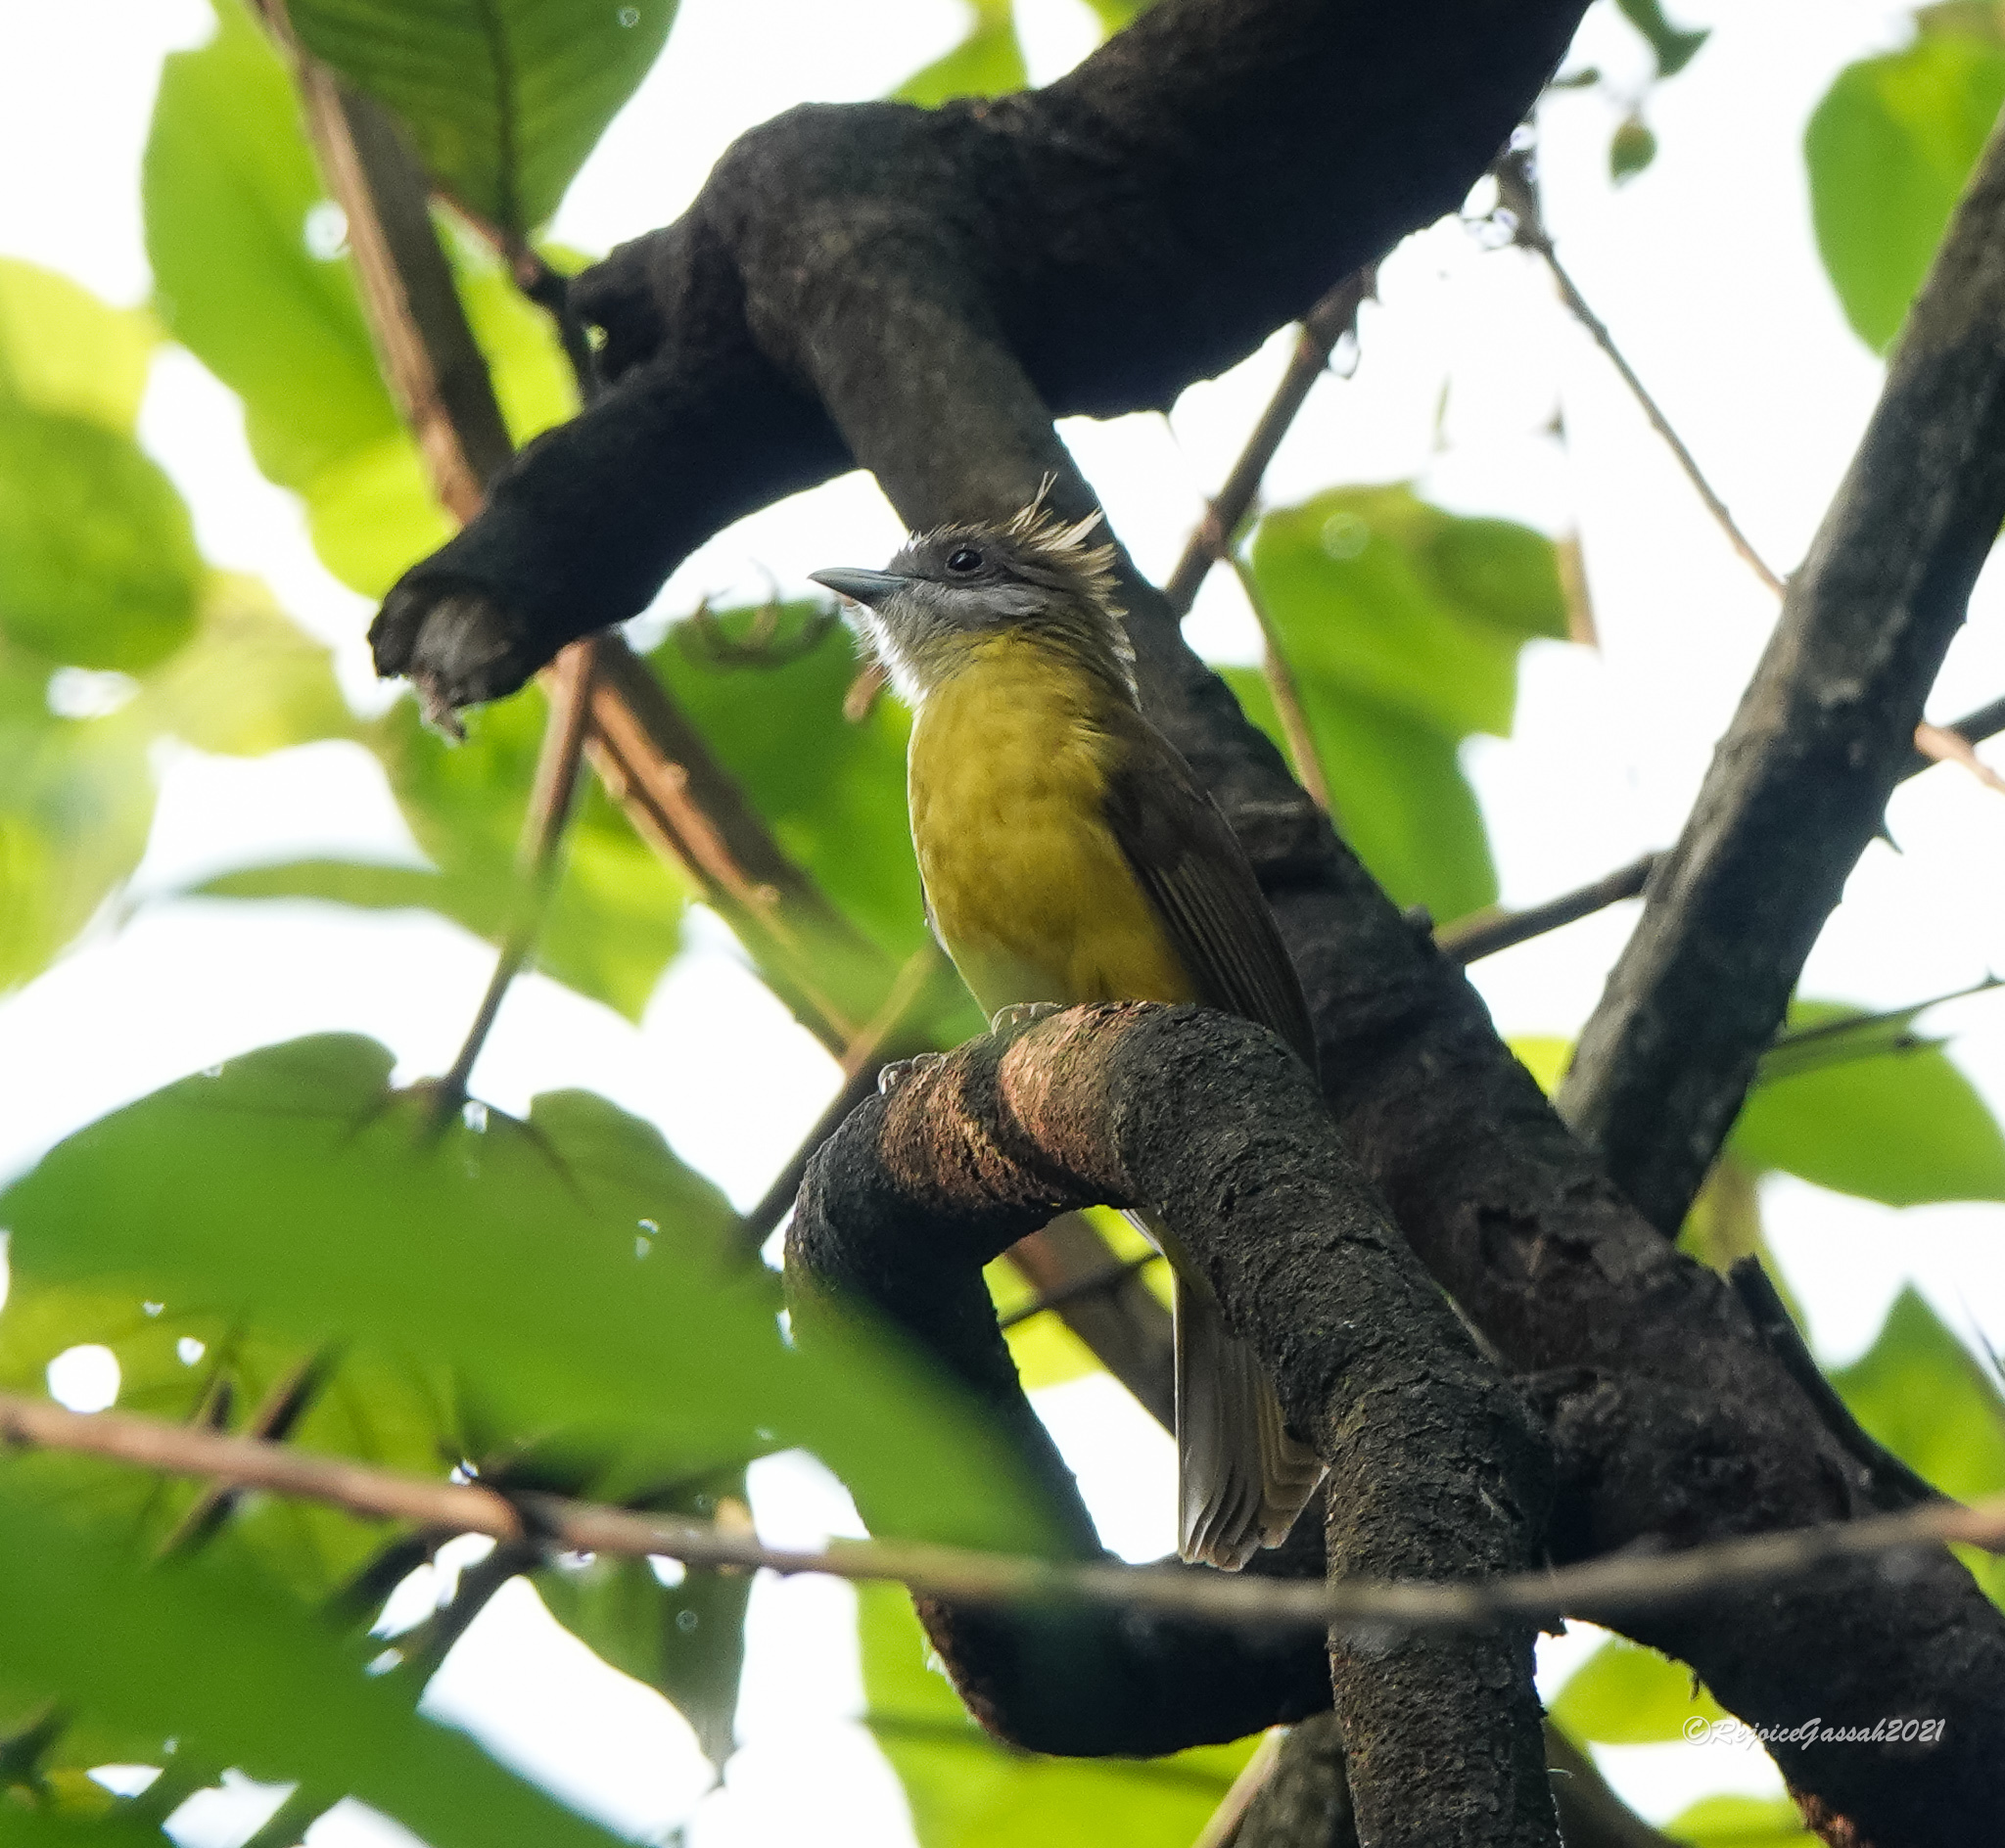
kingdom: Animalia
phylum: Chordata
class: Aves
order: Passeriformes
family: Pycnonotidae
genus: Alophoixus
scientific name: Alophoixus flaveolus
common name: White-throated bulbul
